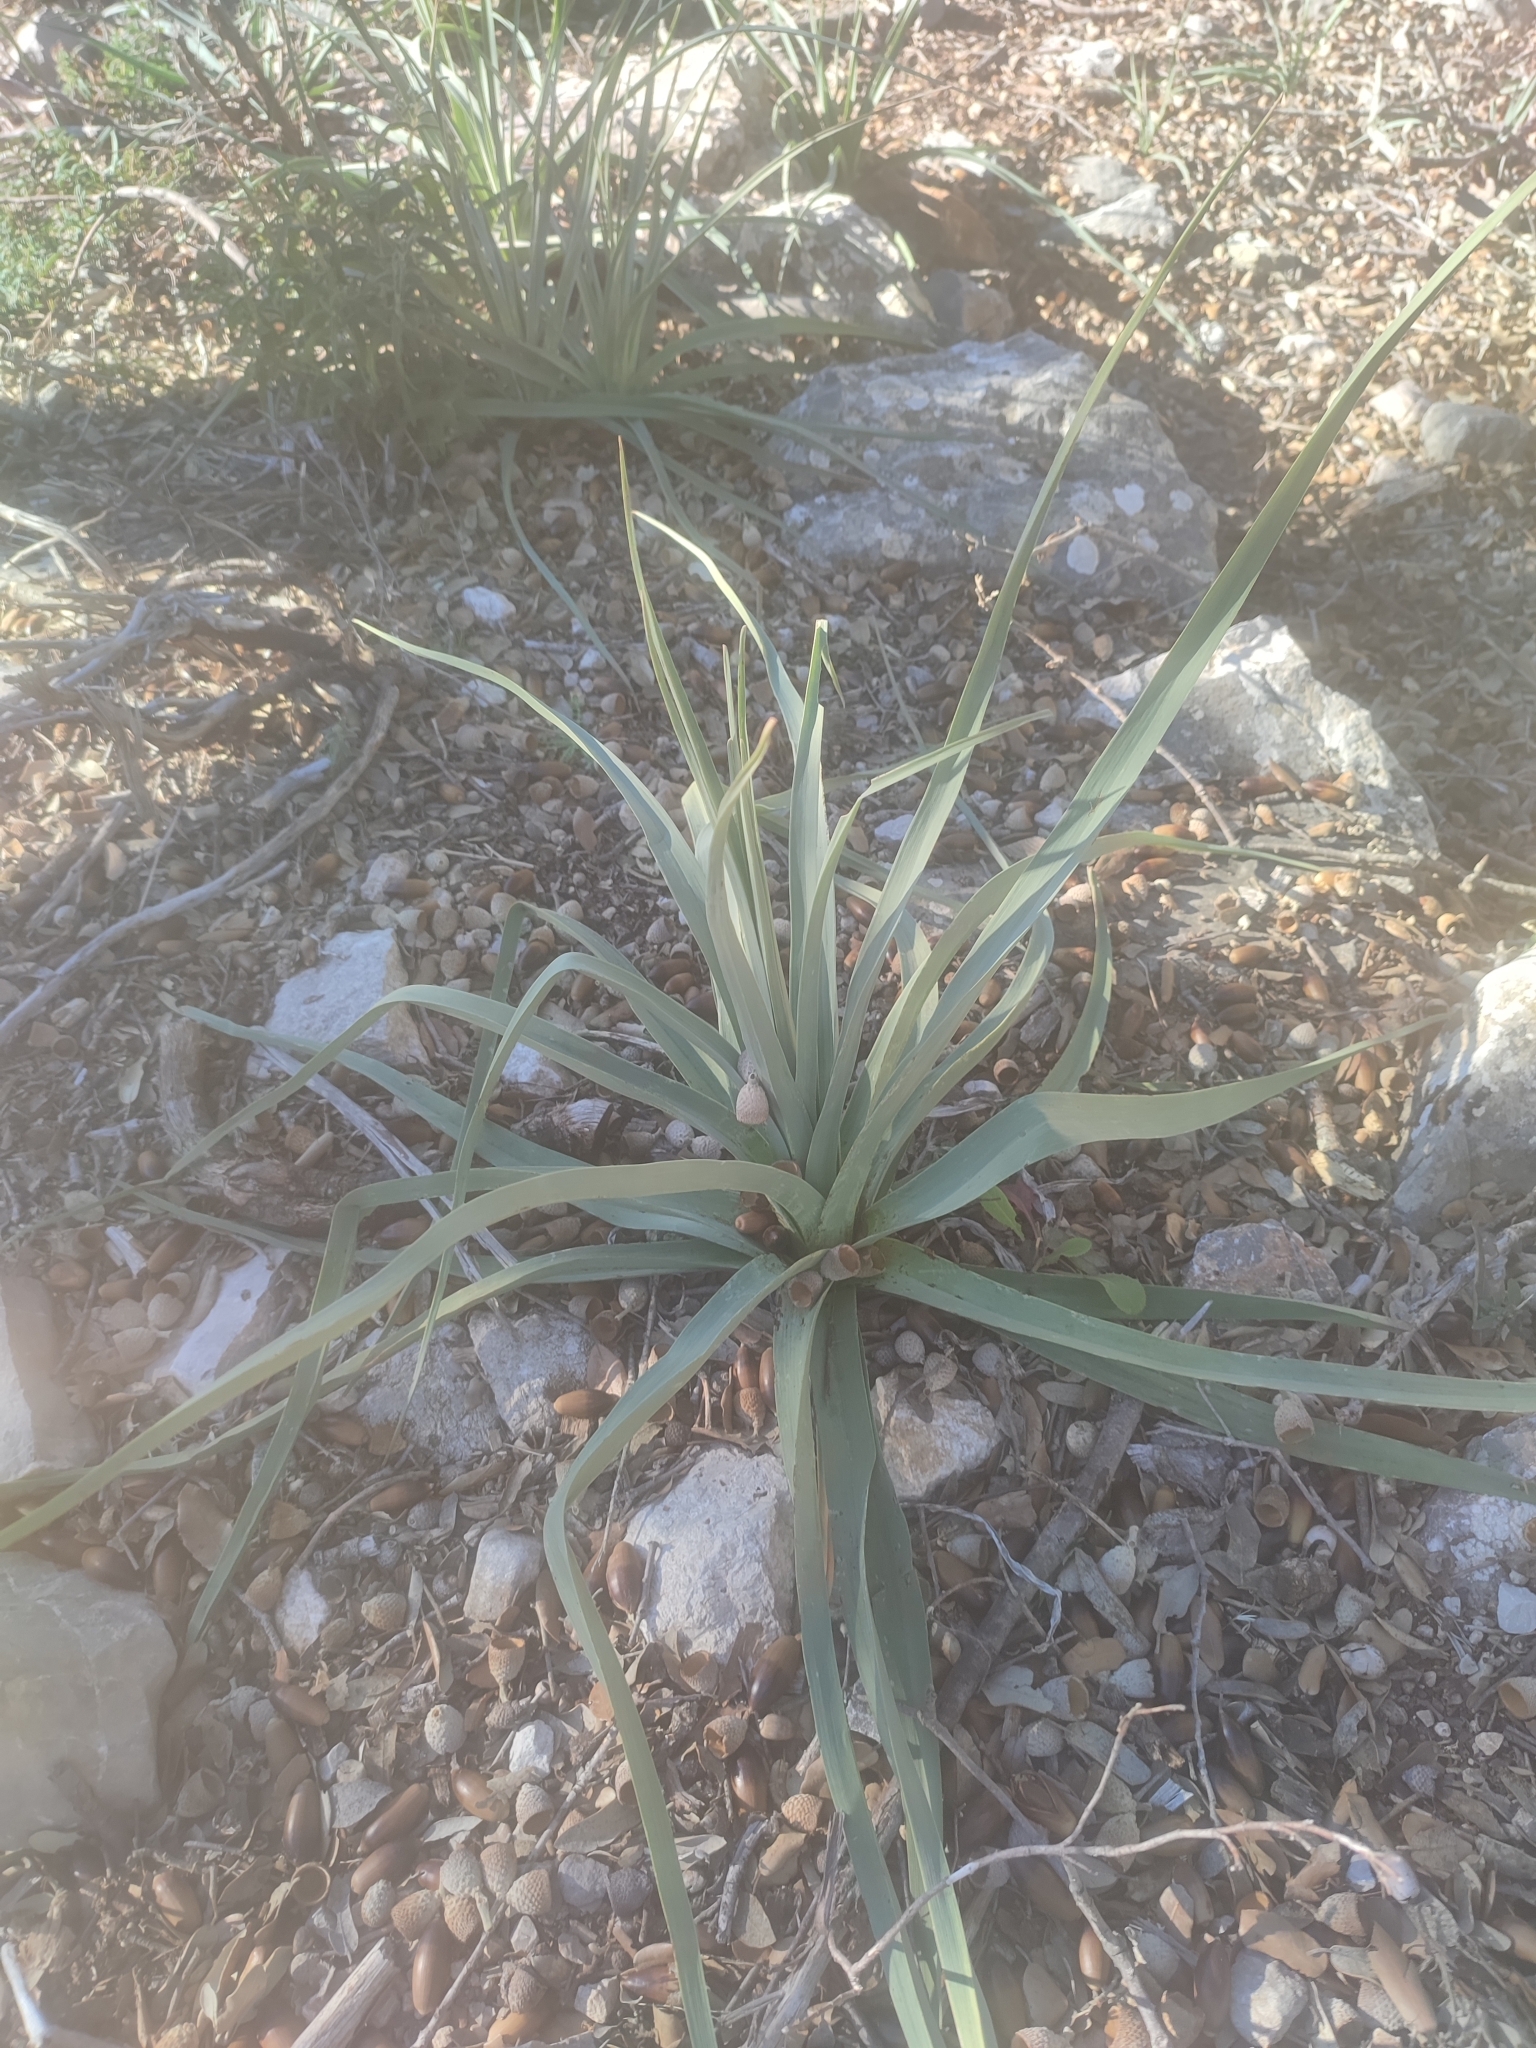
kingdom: Plantae
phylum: Tracheophyta
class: Liliopsida
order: Asparagales
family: Asphodelaceae
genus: Asphodelus
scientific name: Asphodelus ramosus
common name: Silverrod
